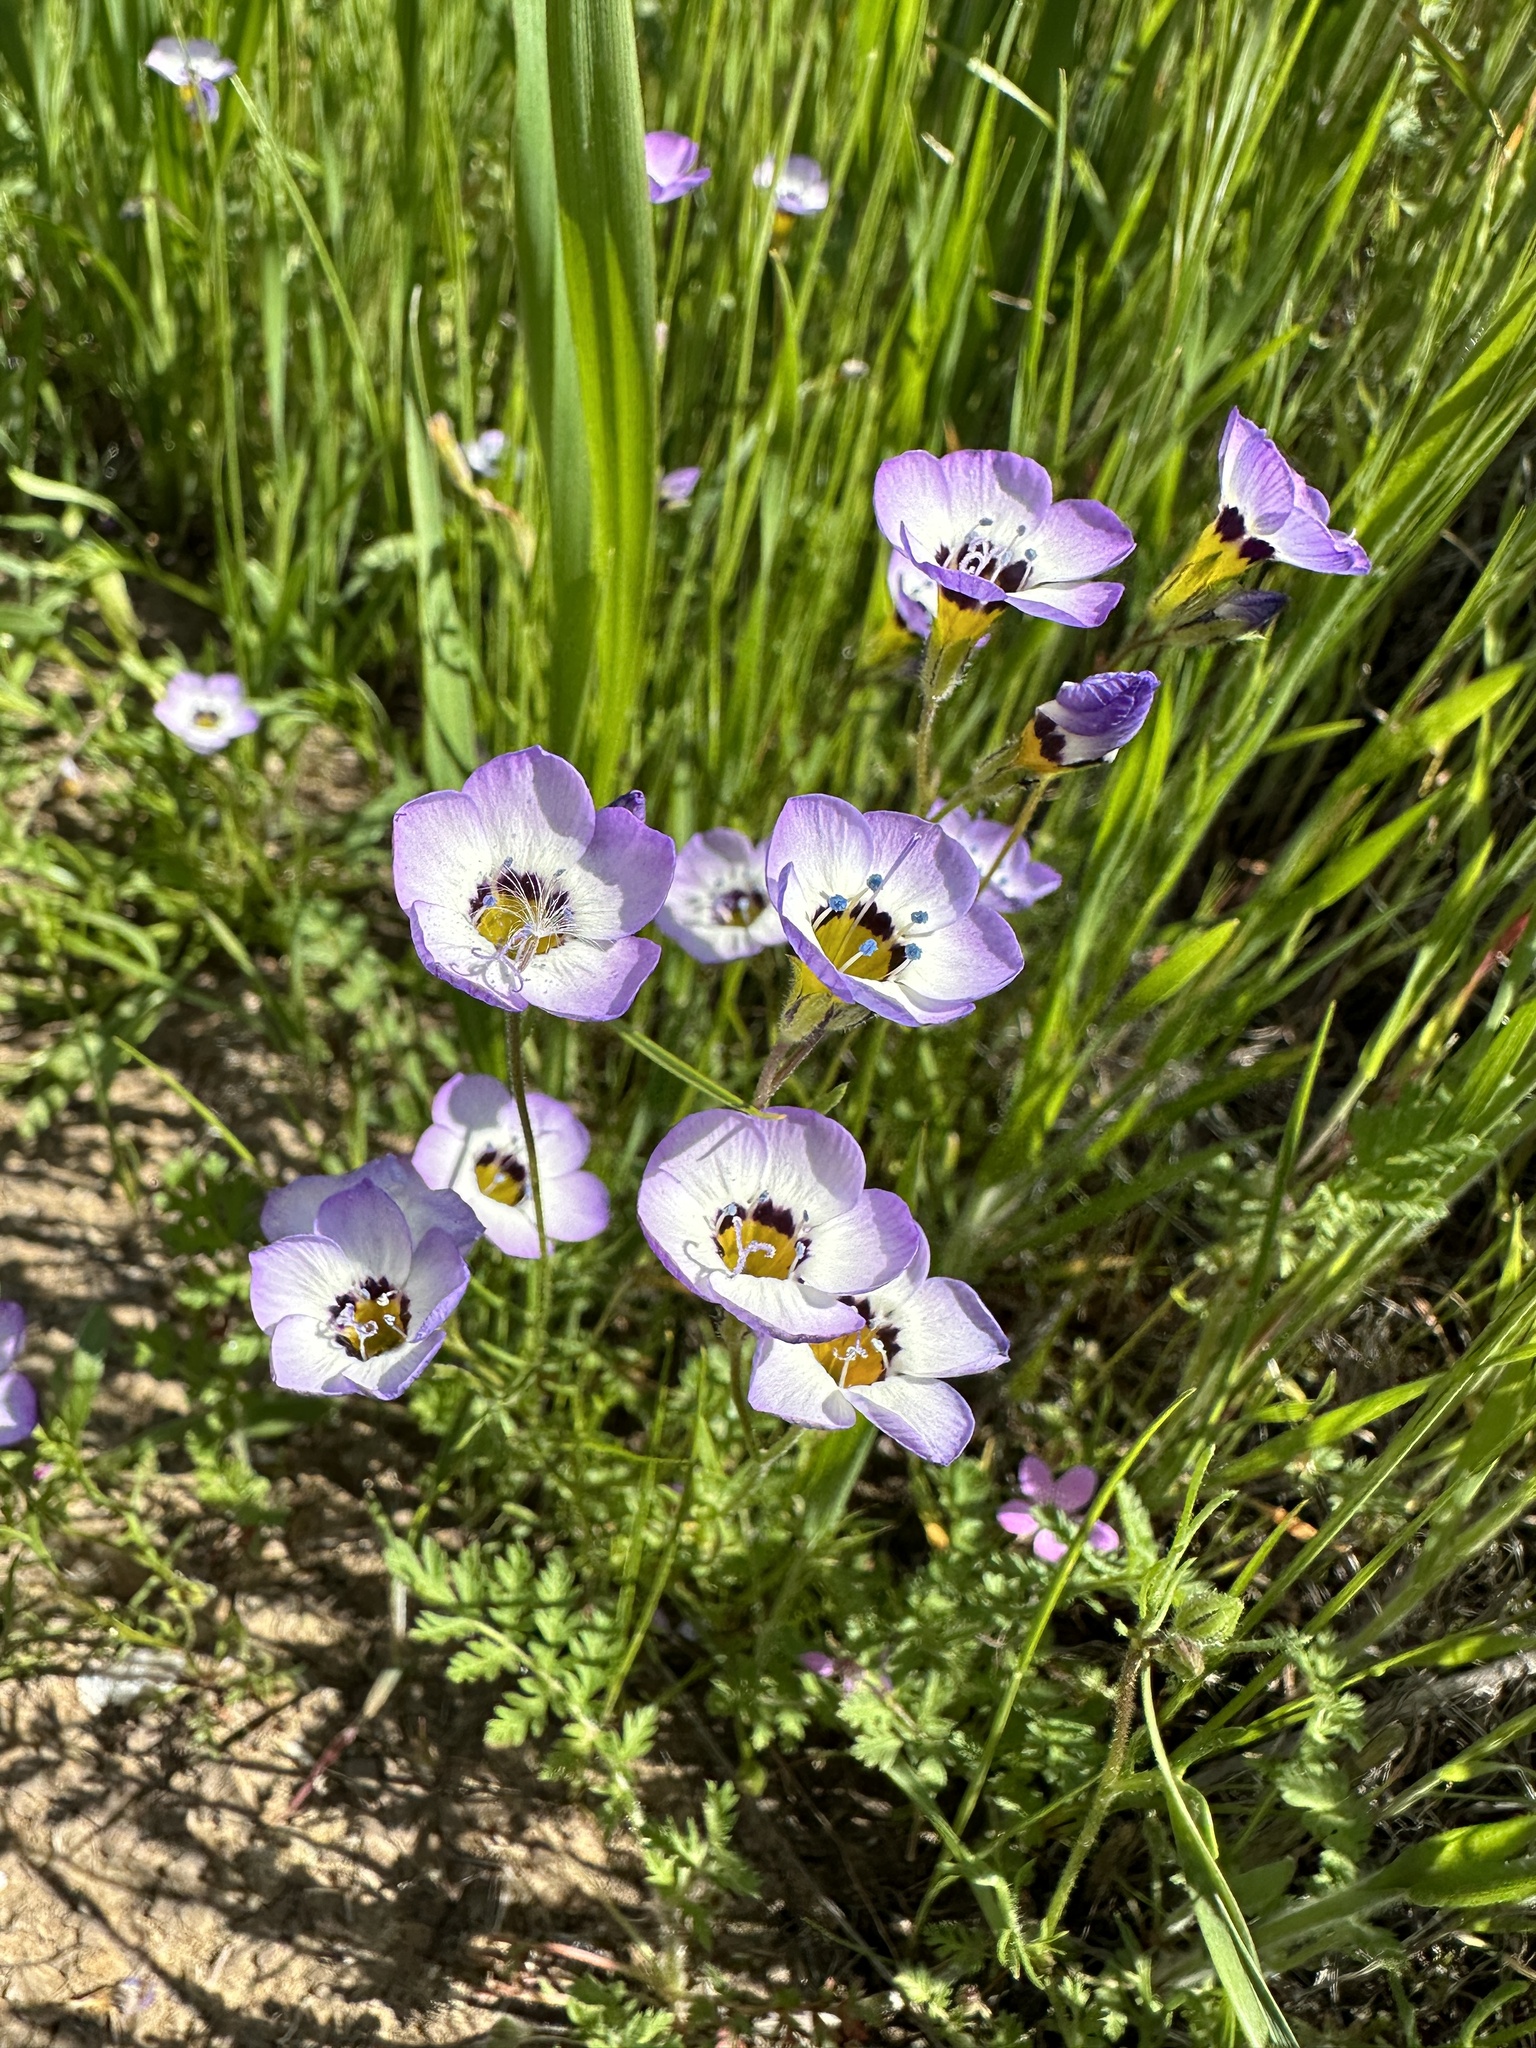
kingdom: Plantae
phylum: Tracheophyta
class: Magnoliopsida
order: Ericales
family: Polemoniaceae
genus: Gilia
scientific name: Gilia tricolor
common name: Bird's-eyes
